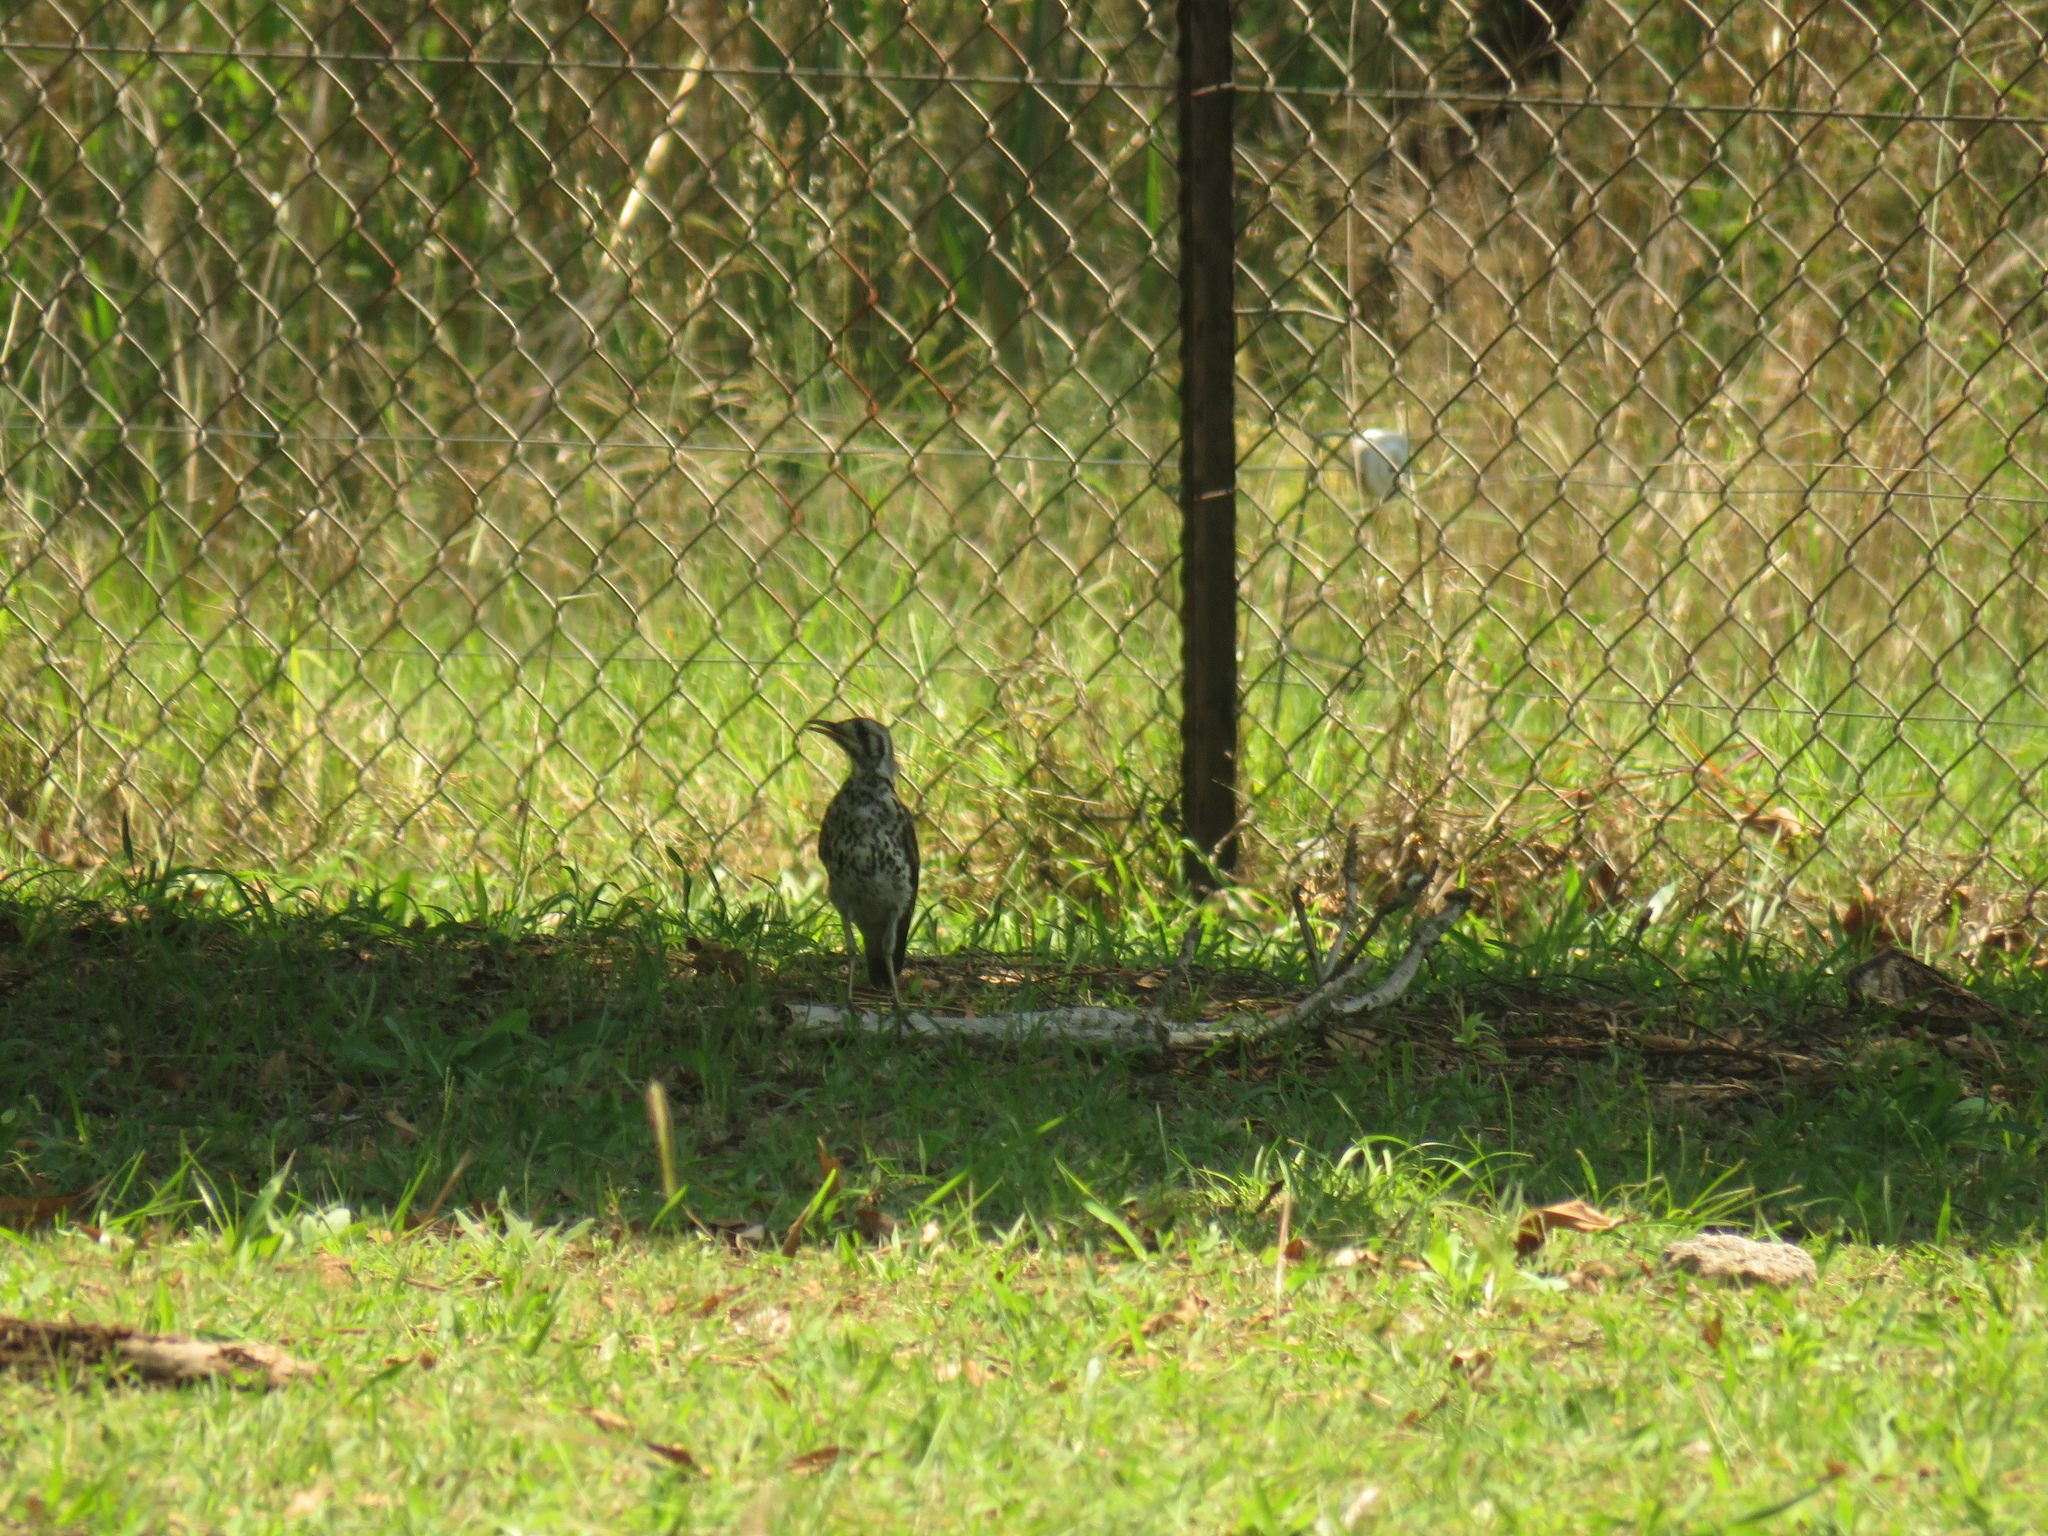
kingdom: Animalia
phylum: Chordata
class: Aves
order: Passeriformes
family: Turdidae
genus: Psophocichla
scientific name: Psophocichla litsitsirupa
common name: Groundscraper thrush
